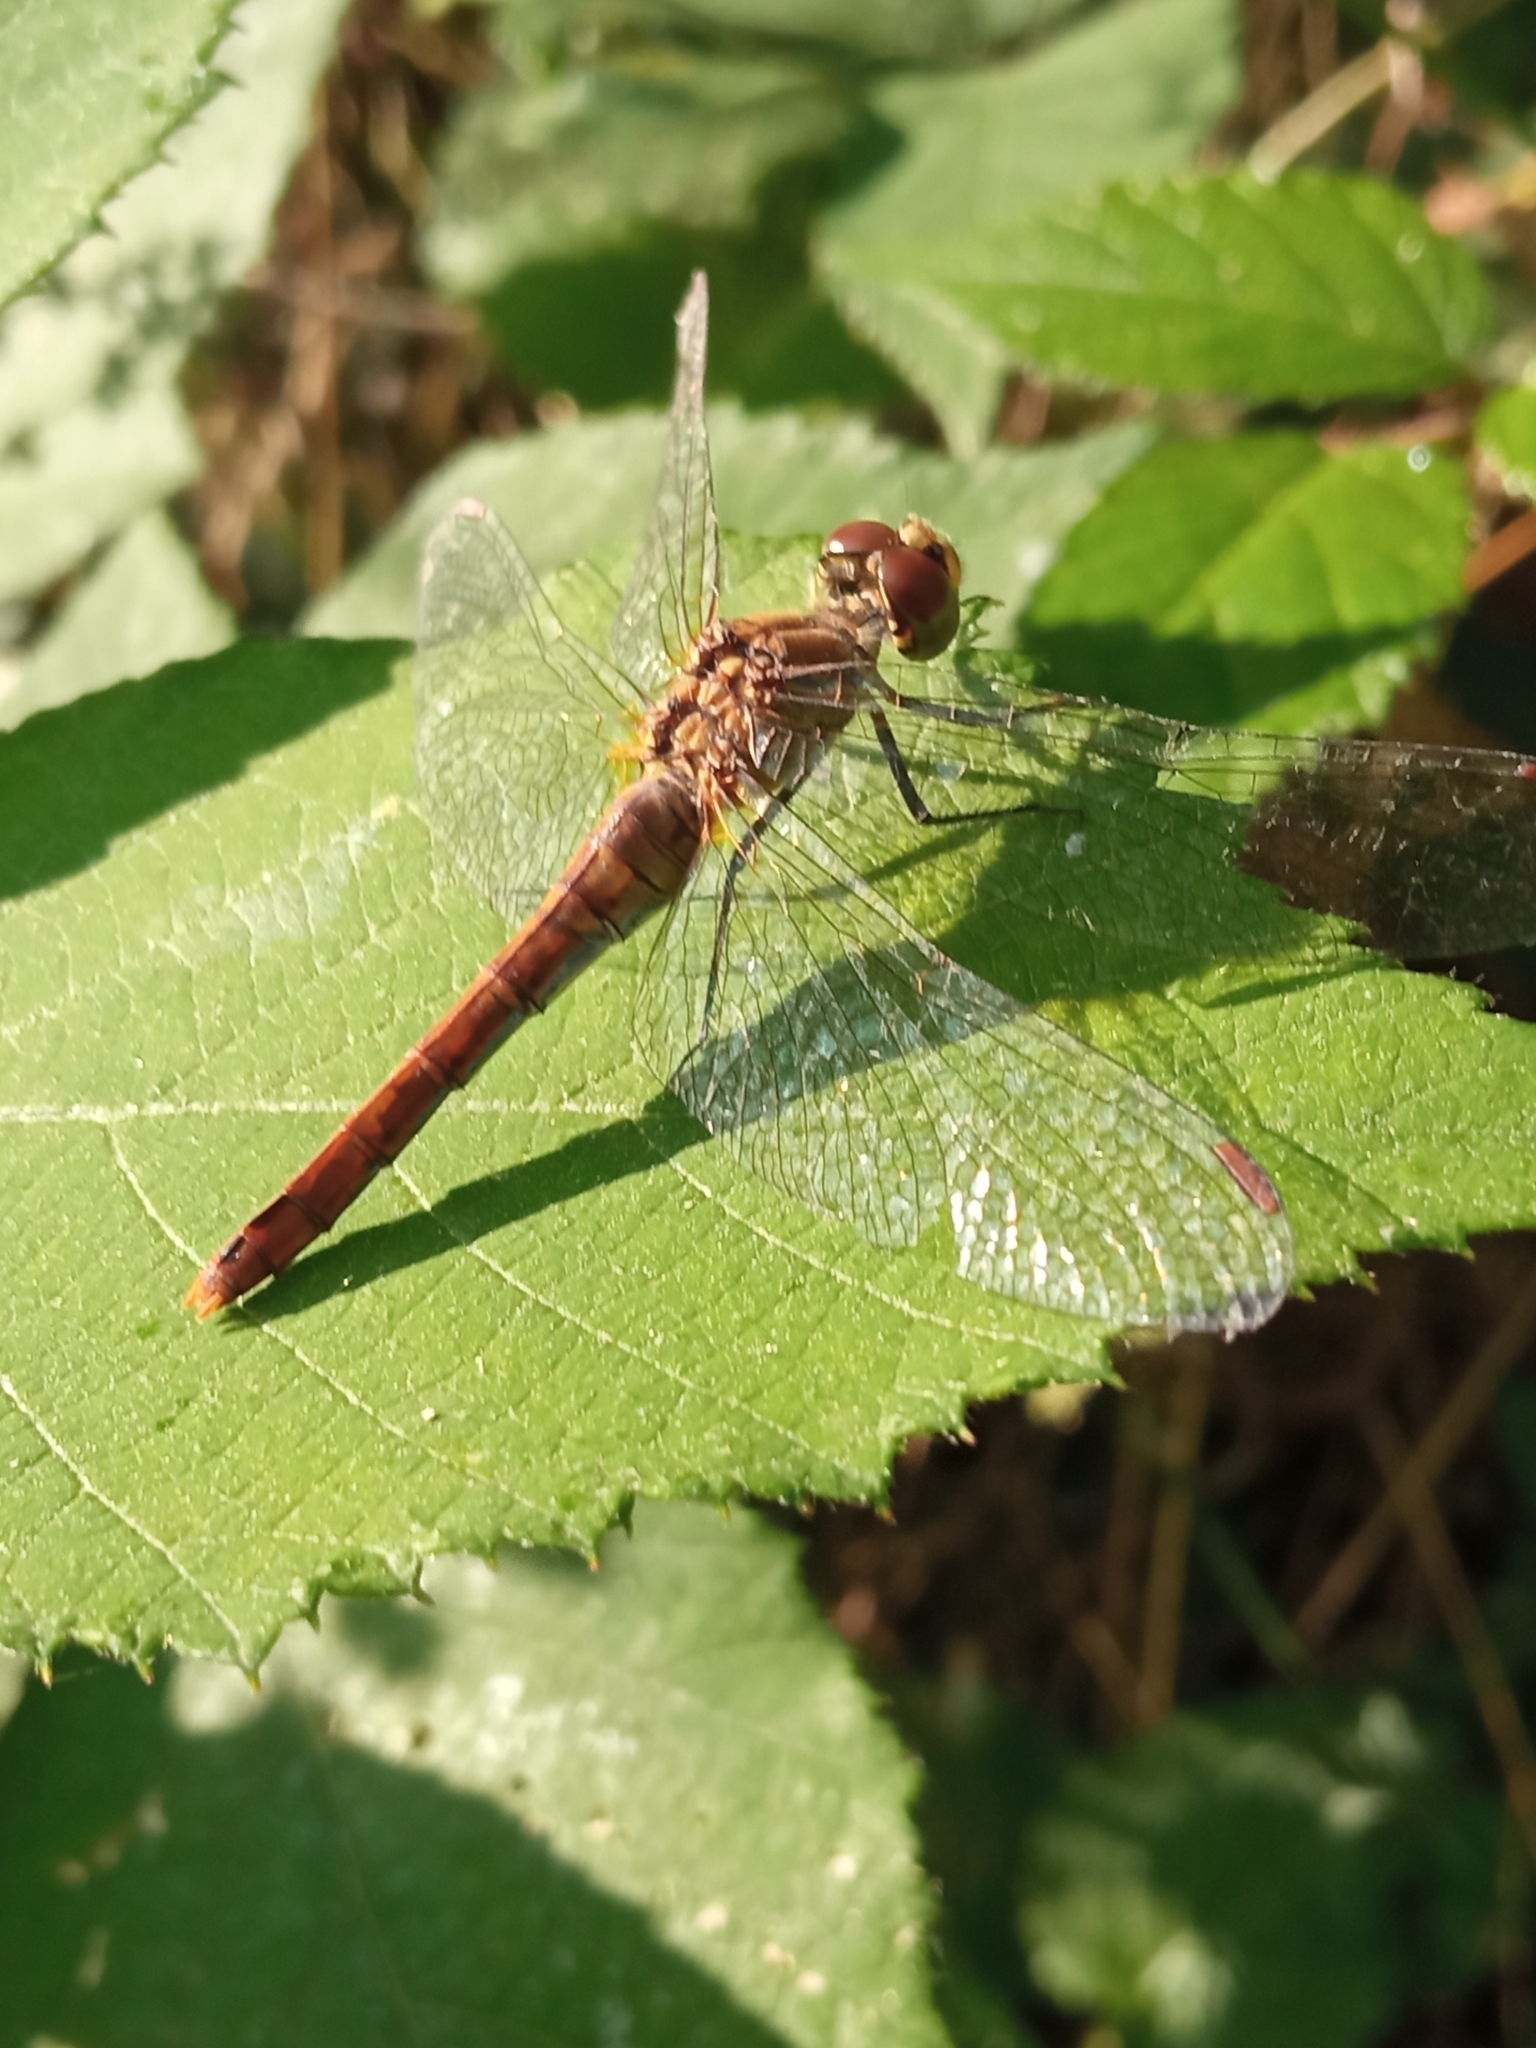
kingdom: Animalia
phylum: Arthropoda
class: Insecta
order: Odonata
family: Libellulidae
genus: Sympetrum
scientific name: Sympetrum sanguineum
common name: Ruddy darter
